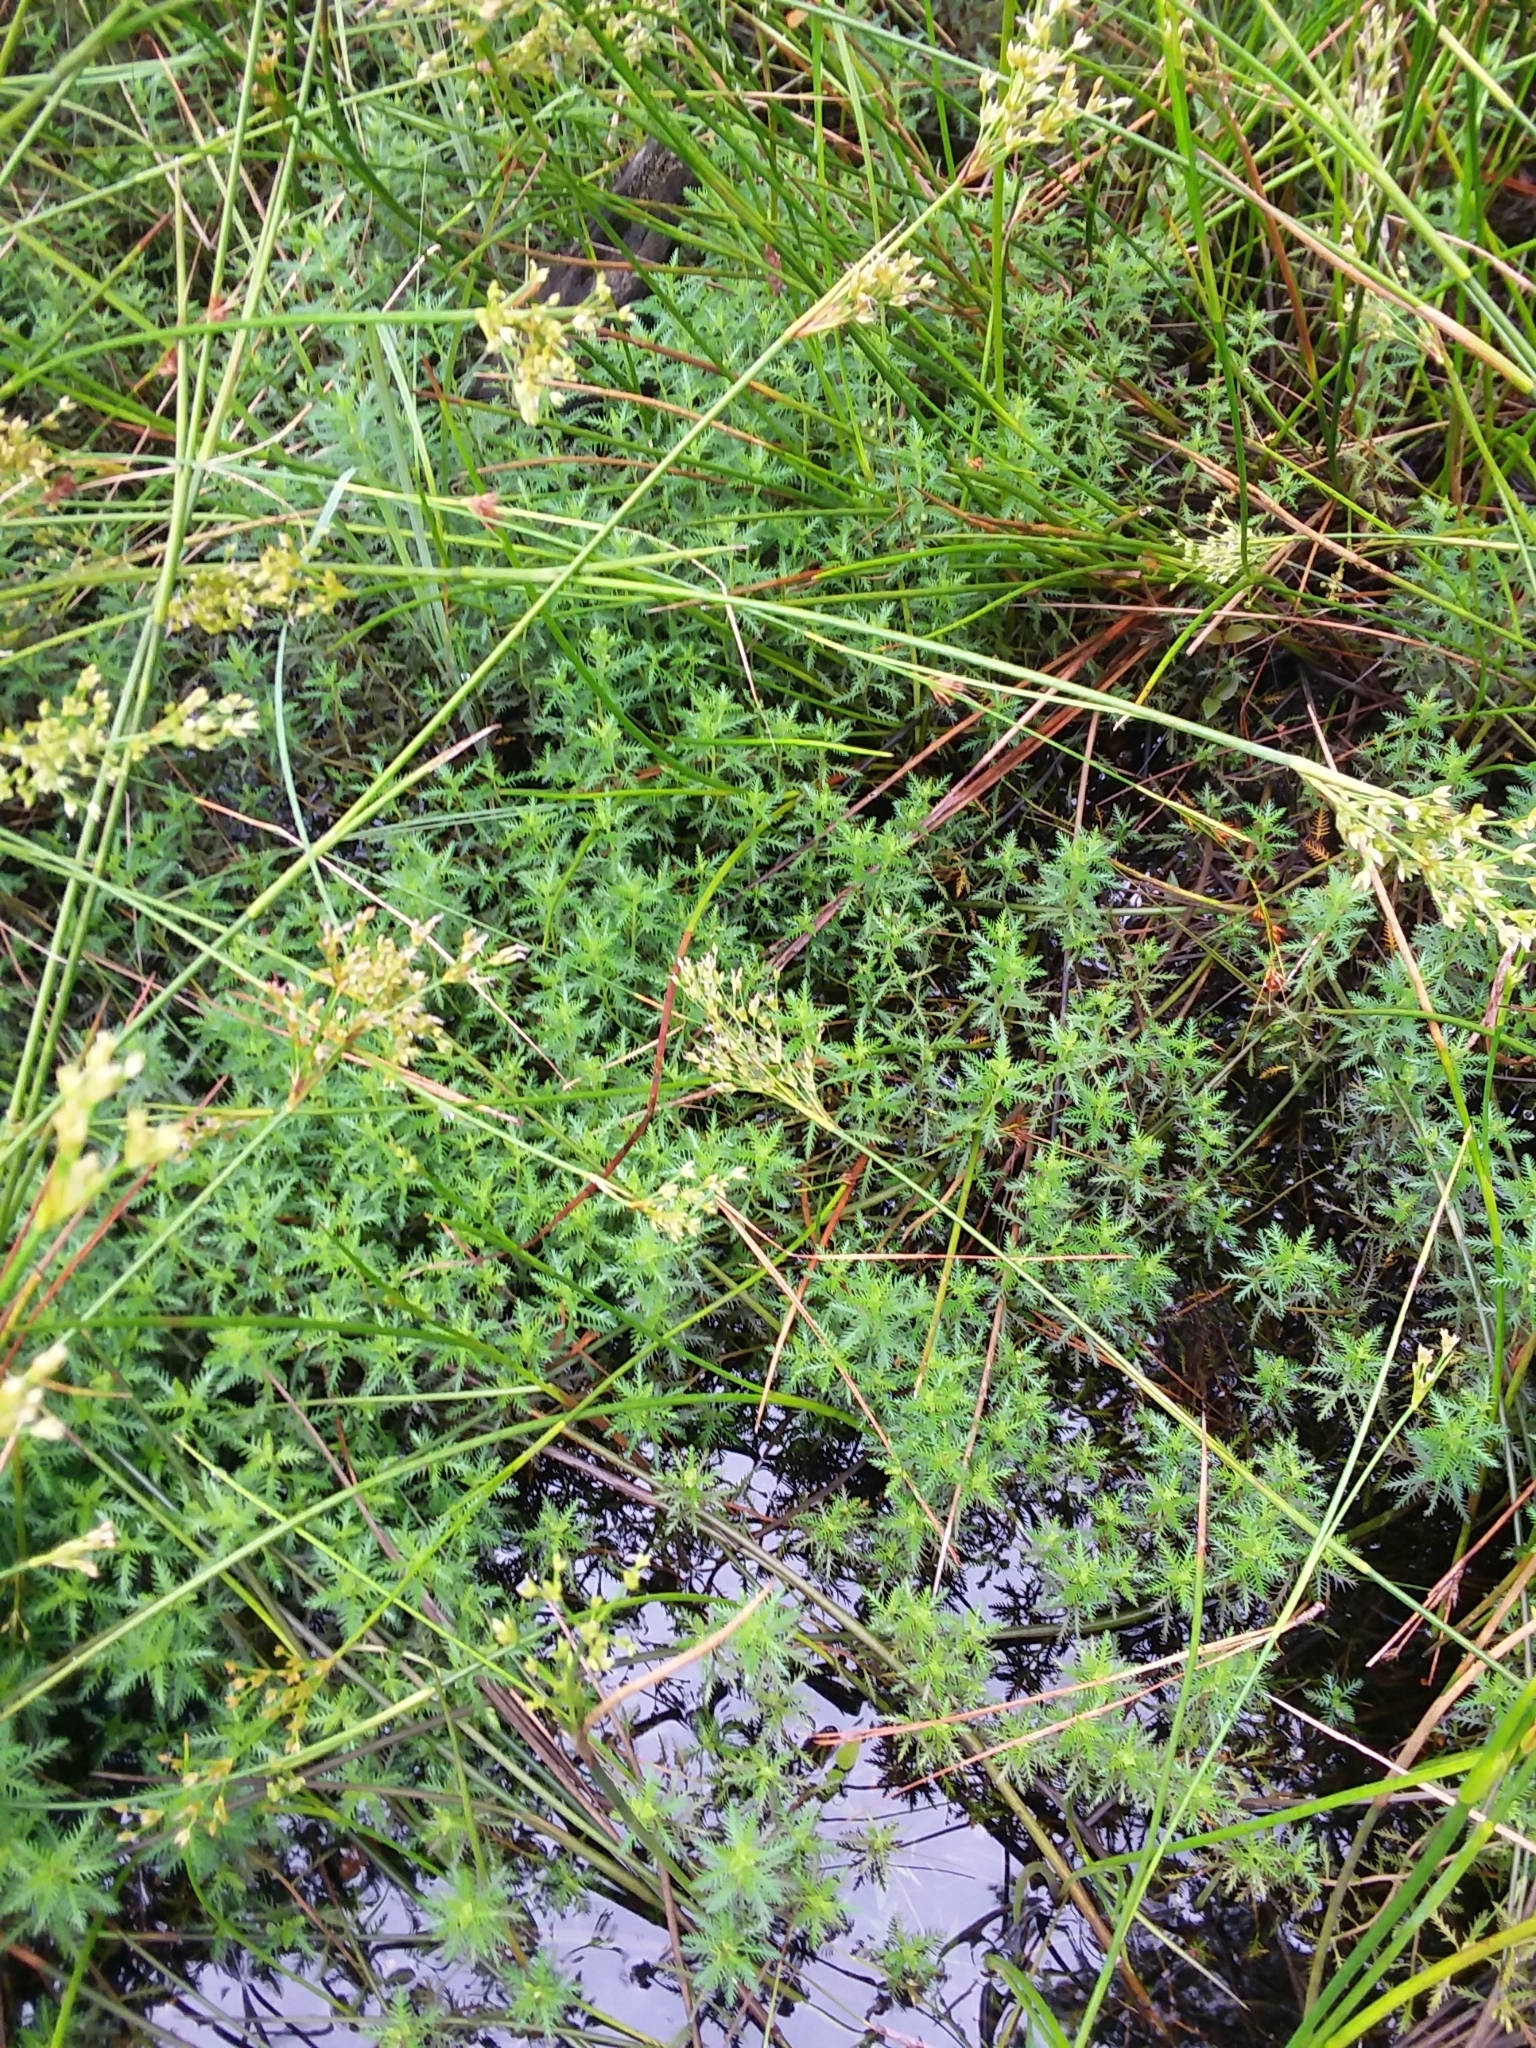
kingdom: Plantae
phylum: Tracheophyta
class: Magnoliopsida
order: Saxifragales
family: Haloragaceae
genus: Proserpinaca
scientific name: Proserpinaca intermedia
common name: Intermediate mermaidweed
